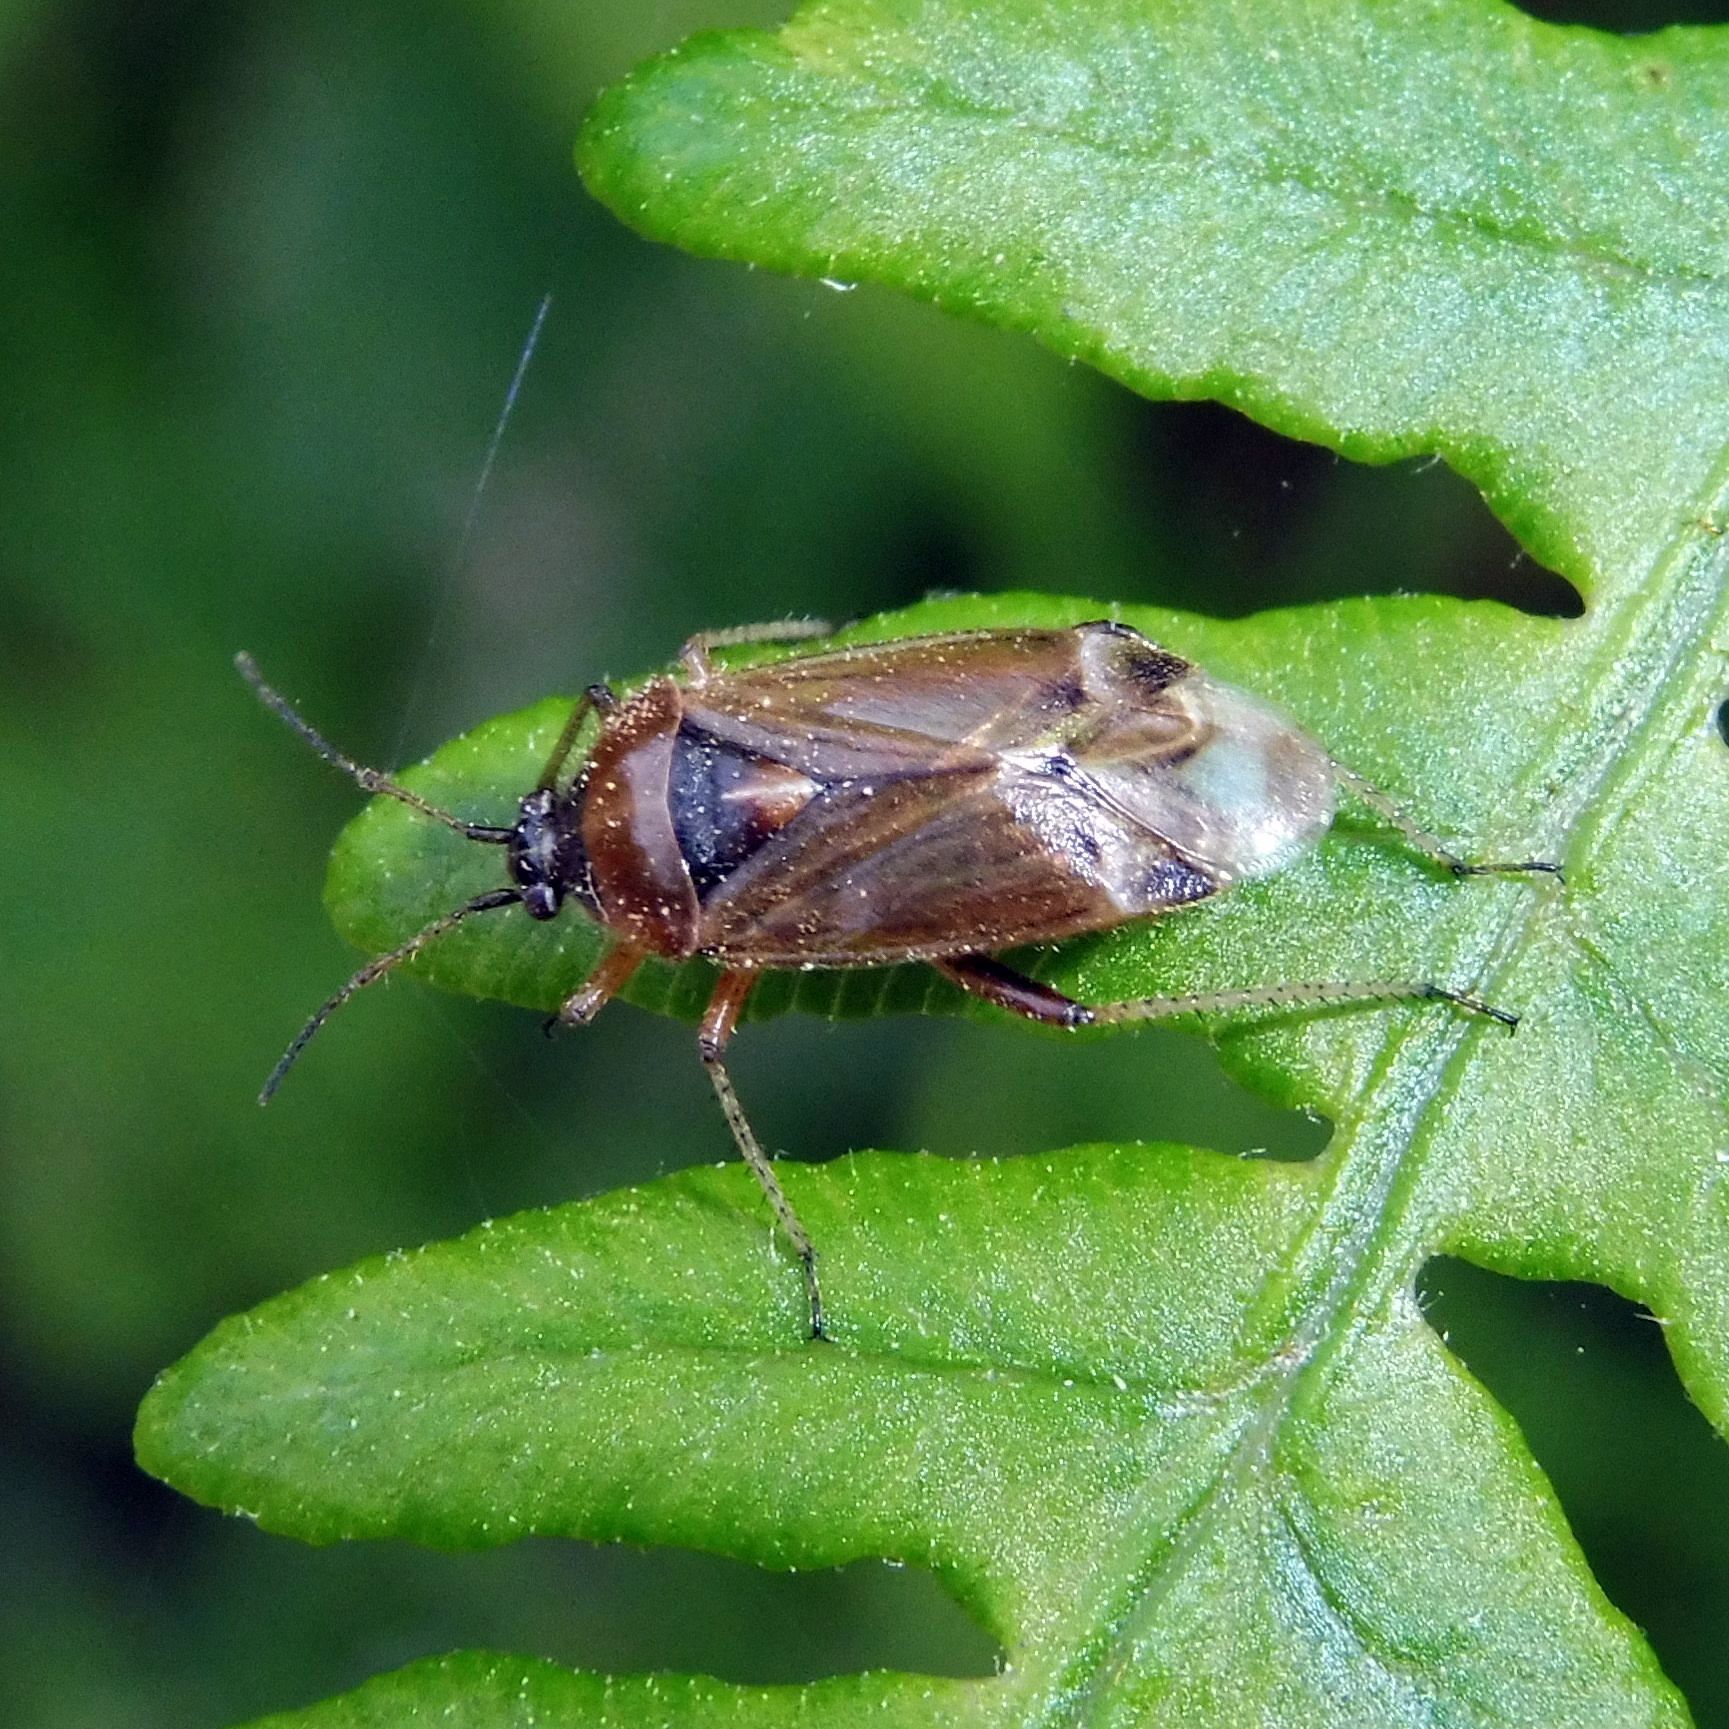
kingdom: Animalia
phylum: Arthropoda
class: Insecta
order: Hemiptera
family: Miridae
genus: Harpocera
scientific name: Harpocera thoracica
